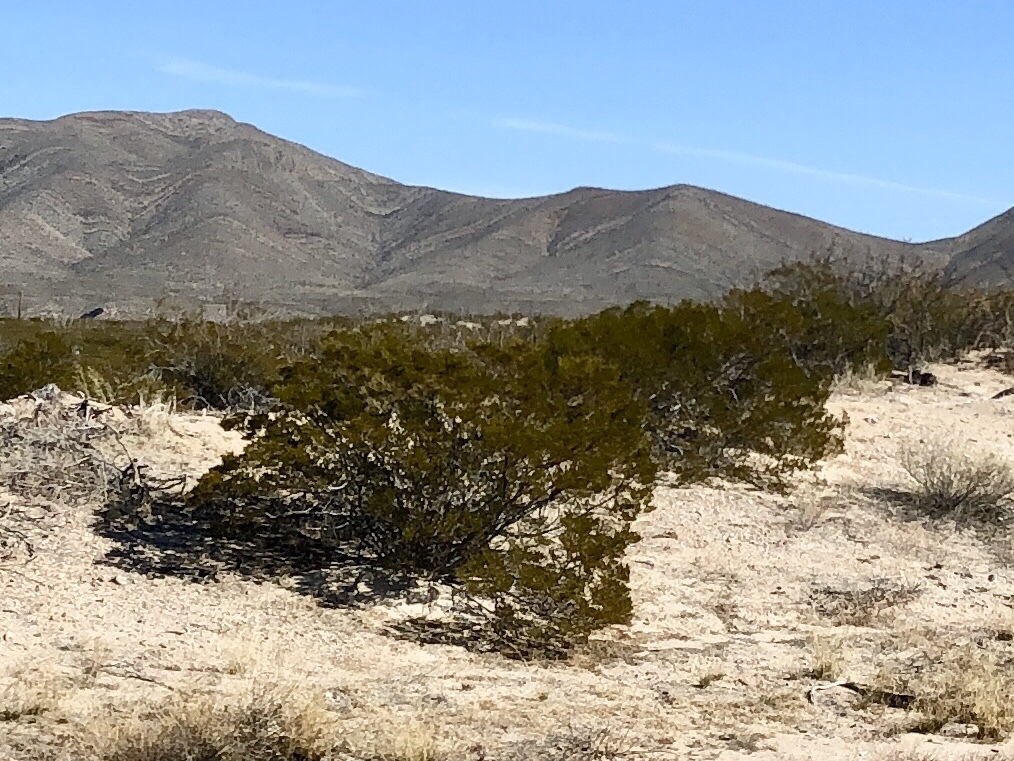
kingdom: Plantae
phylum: Tracheophyta
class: Magnoliopsida
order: Zygophyllales
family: Zygophyllaceae
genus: Larrea
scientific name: Larrea tridentata
